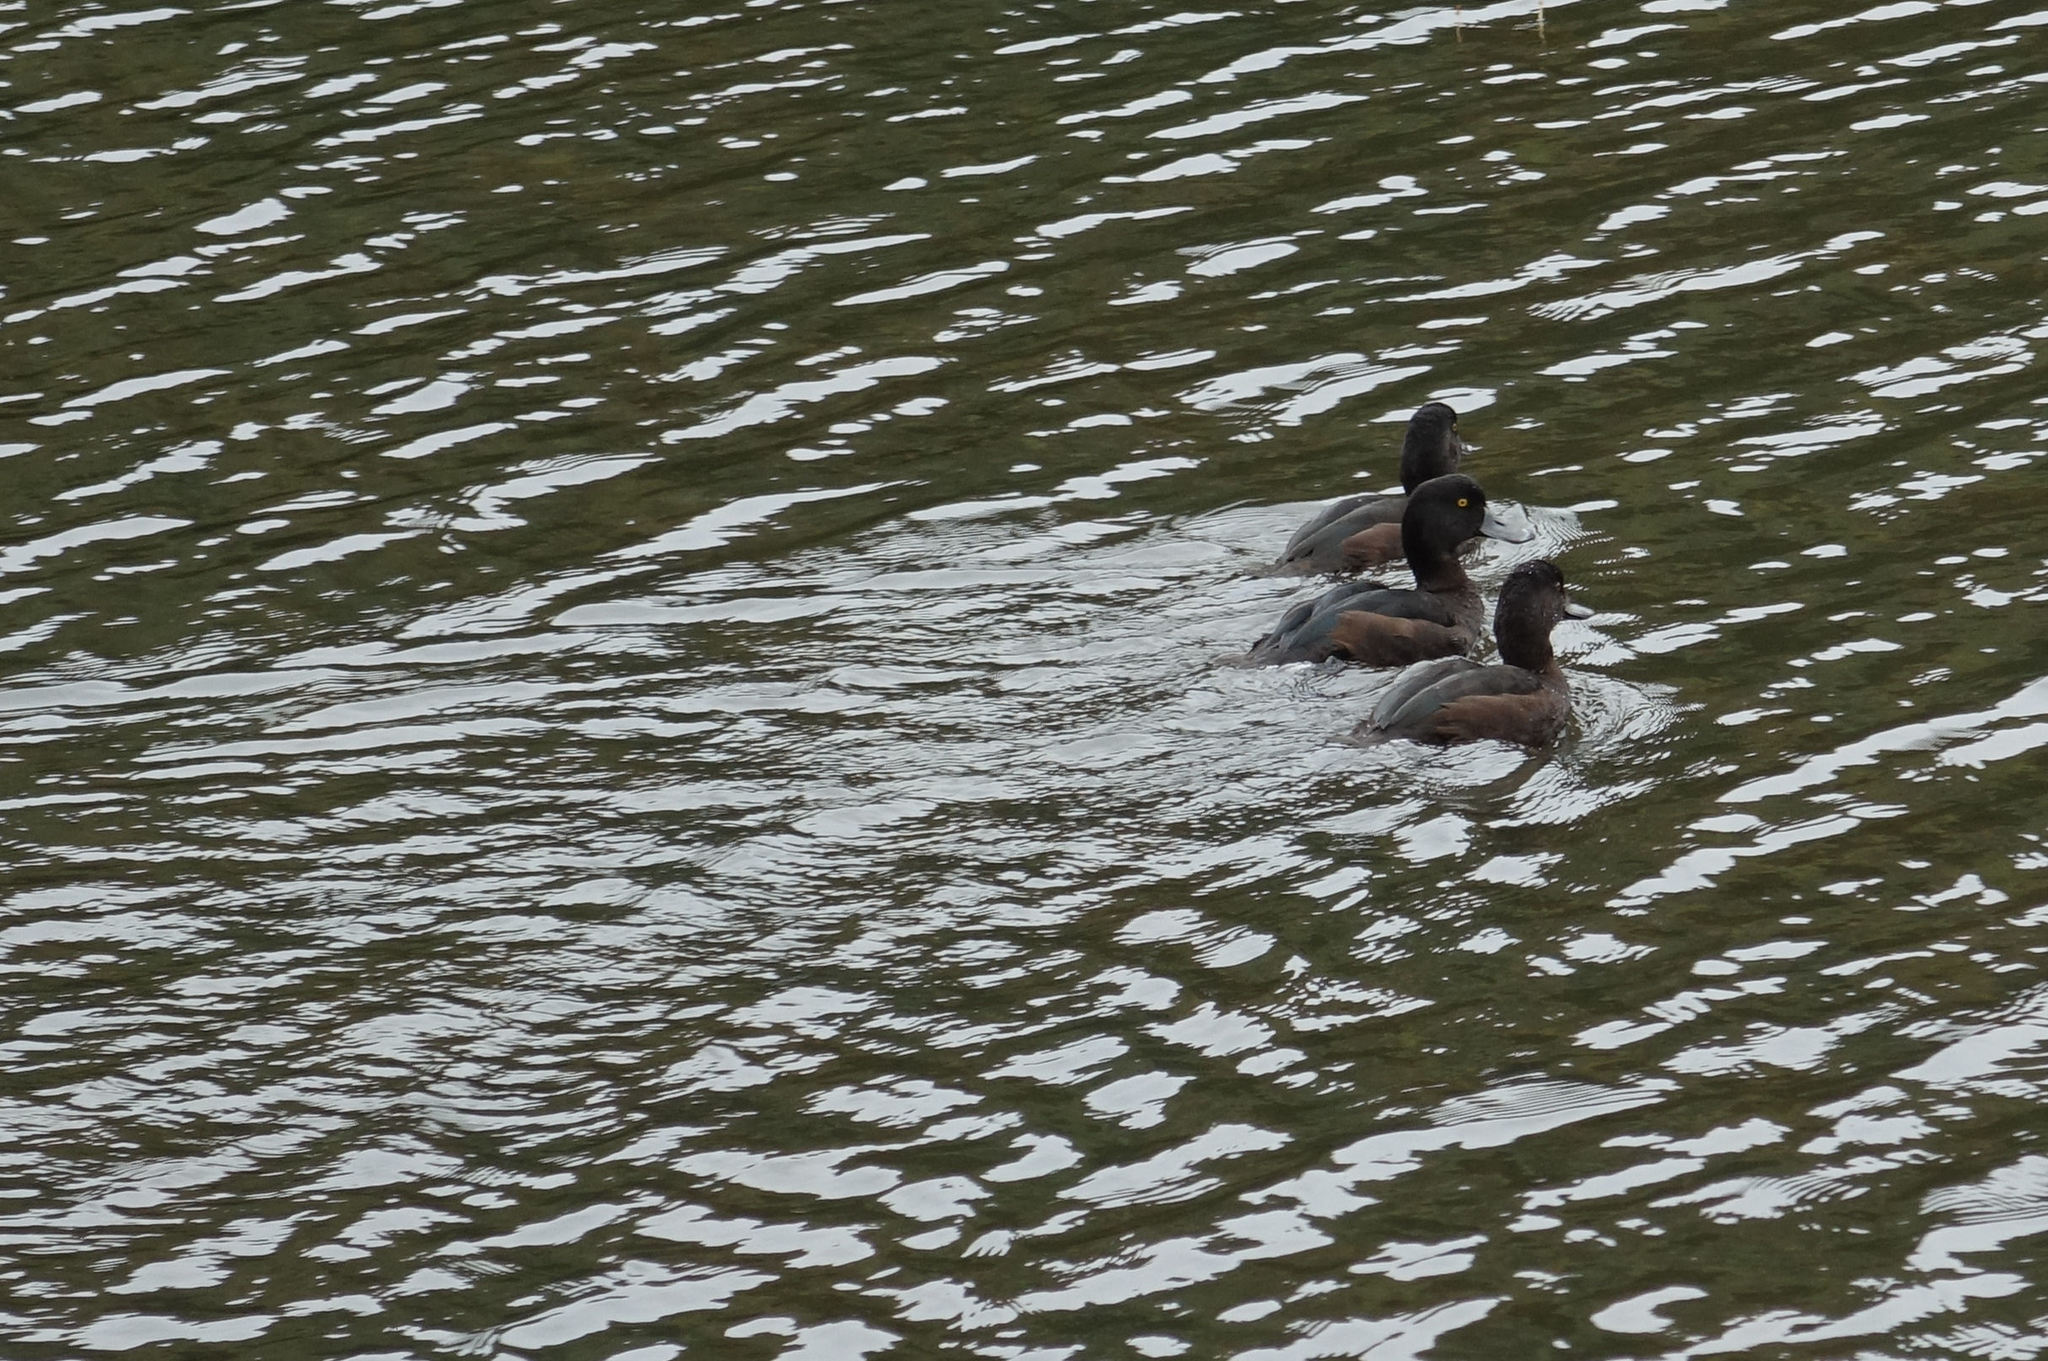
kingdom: Animalia
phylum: Chordata
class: Aves
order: Anseriformes
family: Anatidae
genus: Aythya
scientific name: Aythya novaeseelandiae
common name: New zealand scaup
